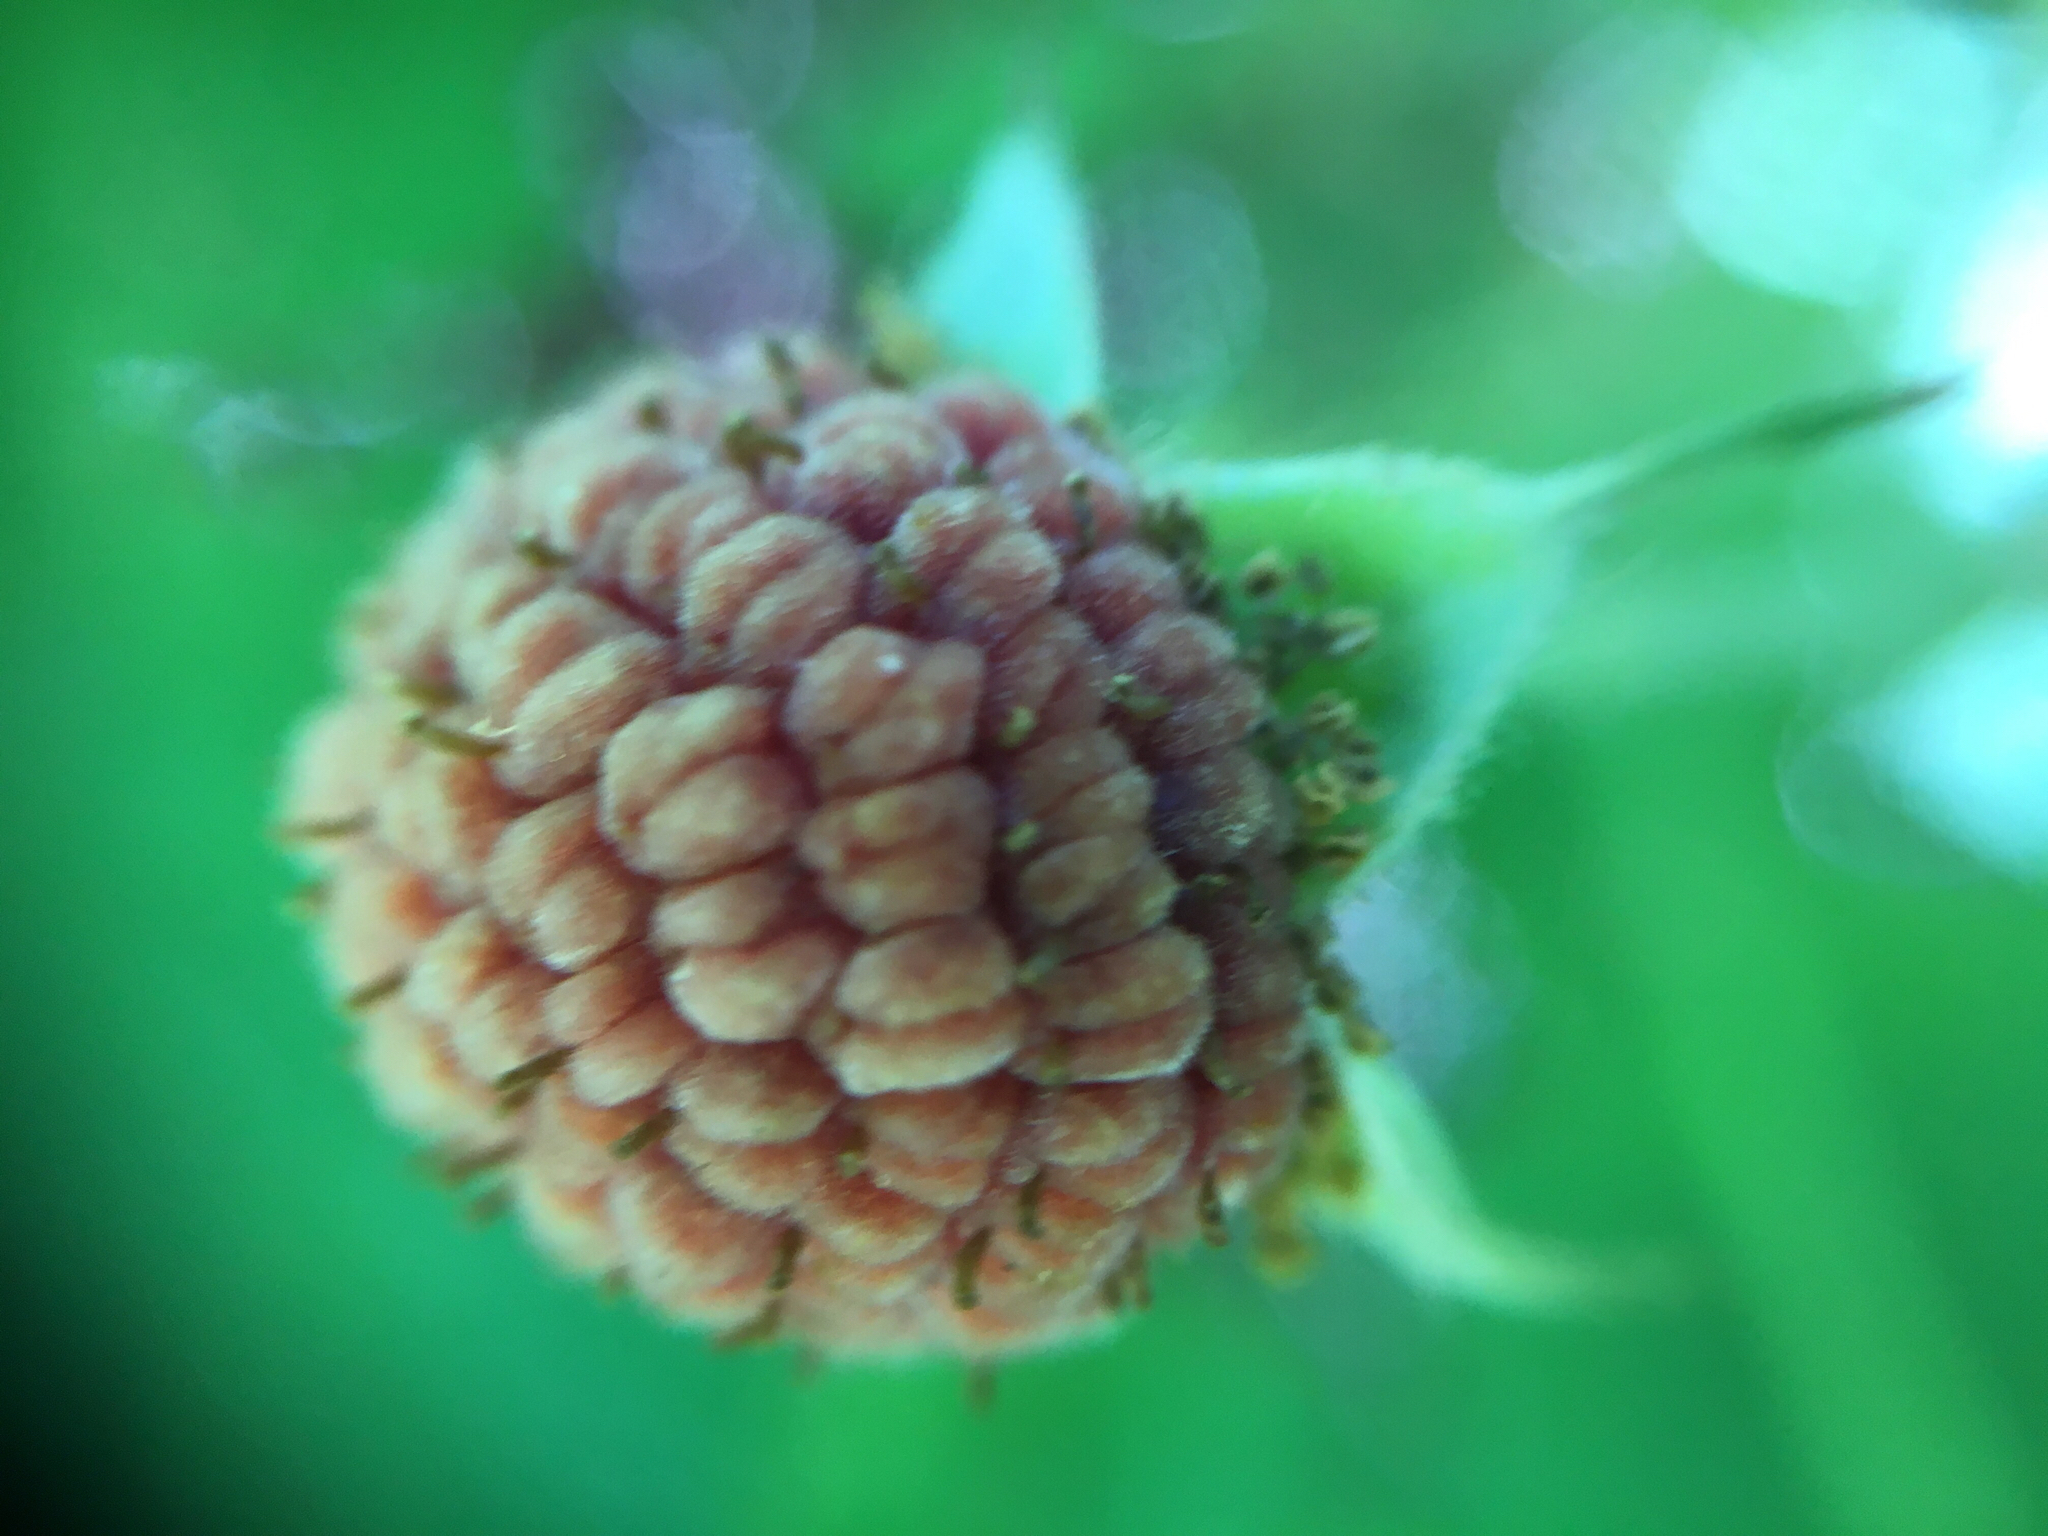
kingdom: Plantae
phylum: Tracheophyta
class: Magnoliopsida
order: Rosales
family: Rosaceae
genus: Rubus
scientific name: Rubus parviflorus
